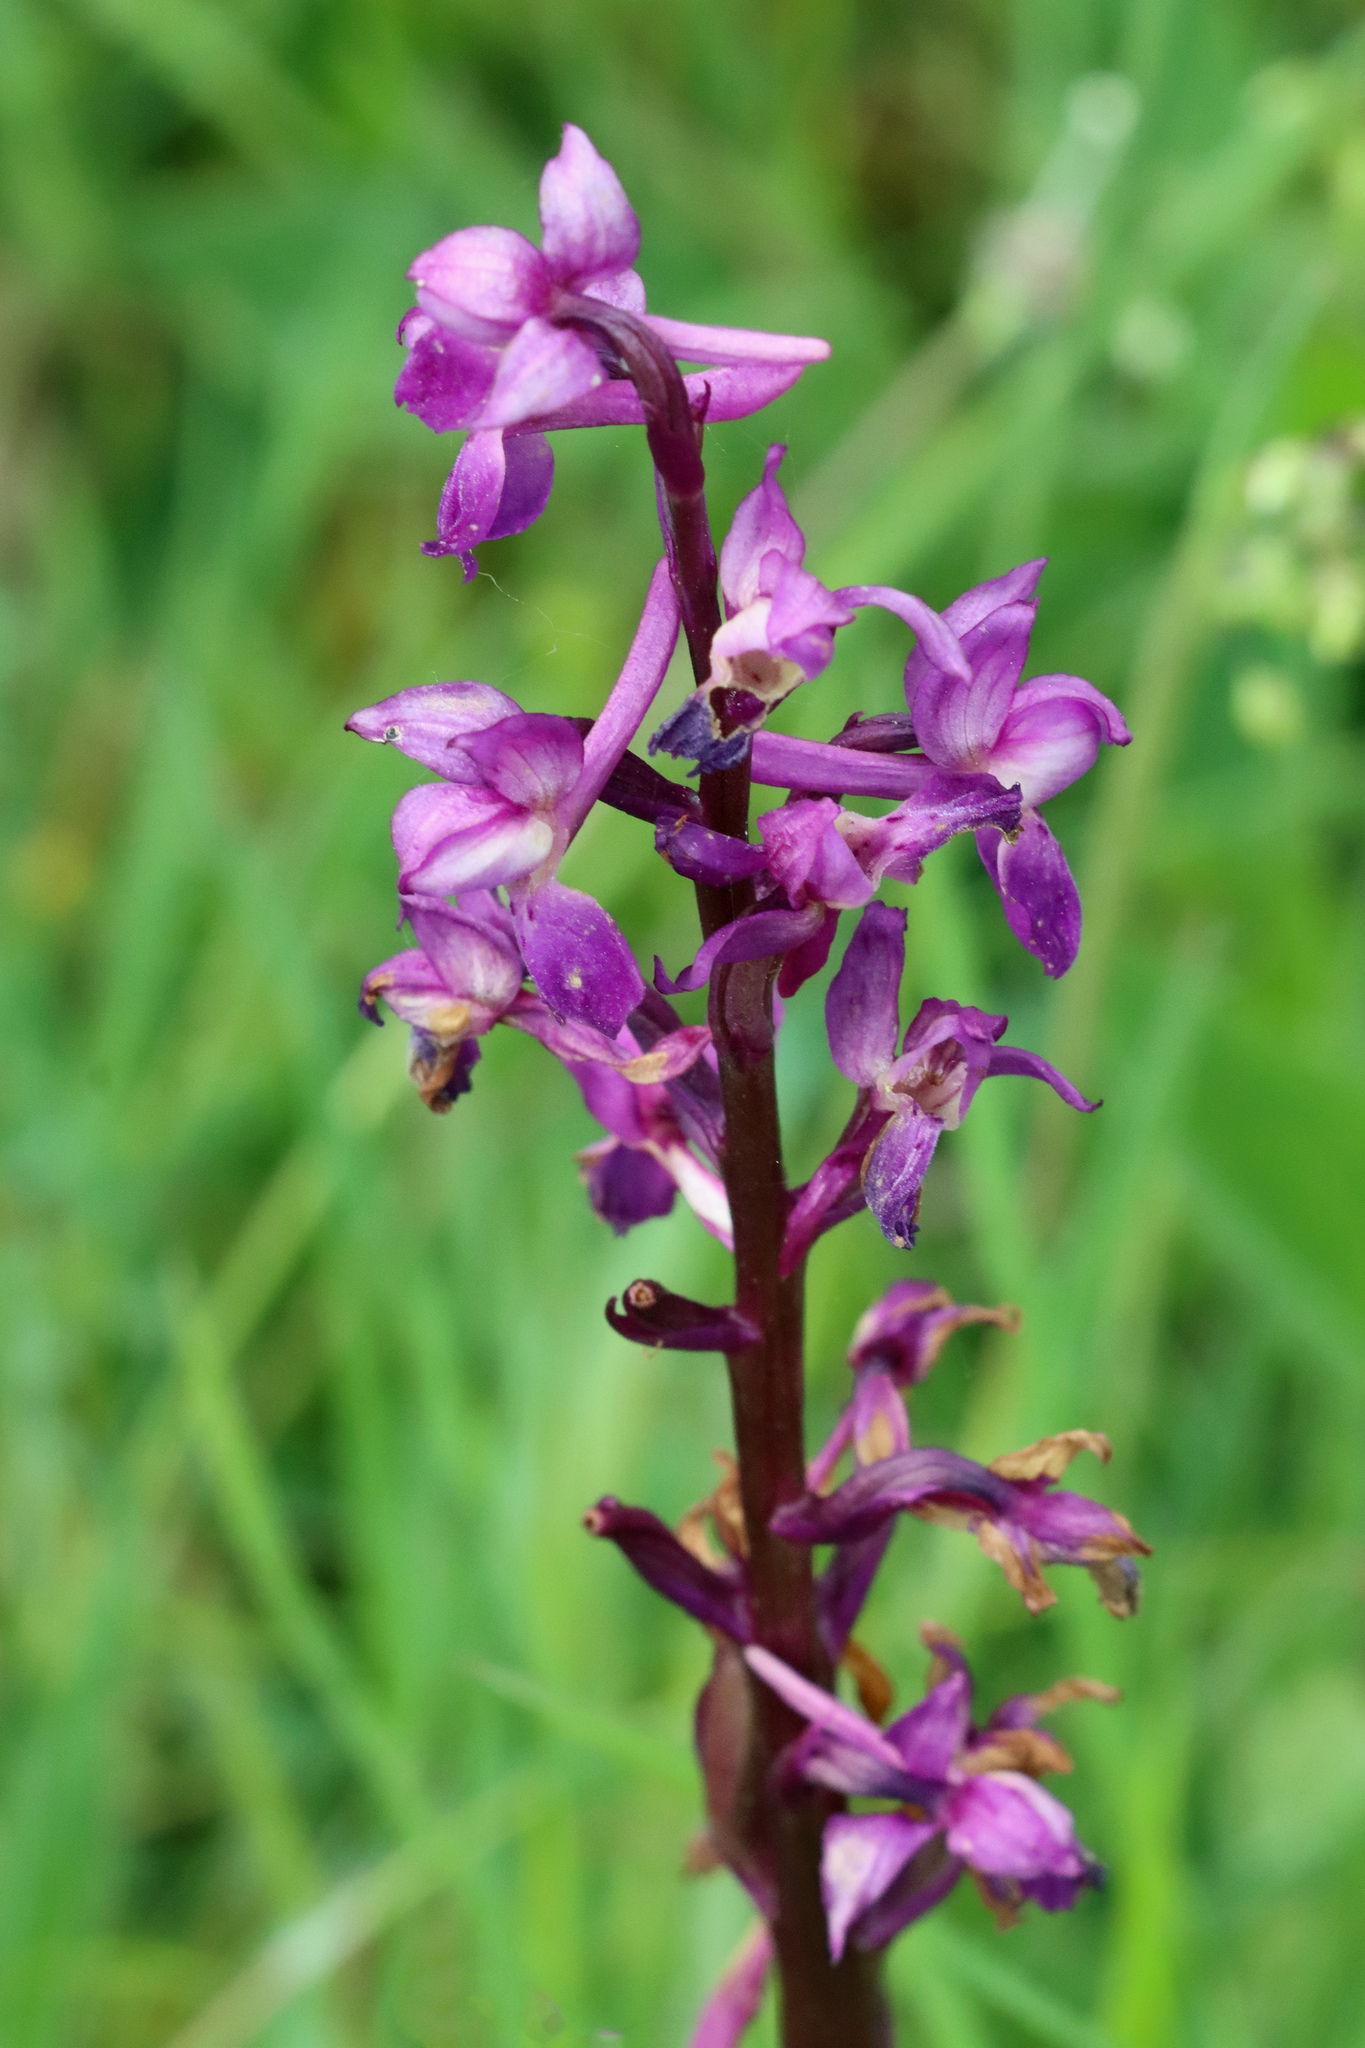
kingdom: Plantae
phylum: Tracheophyta
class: Liliopsida
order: Asparagales
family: Orchidaceae
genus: Orchis
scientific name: Orchis mascula
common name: Early-purple orchid
